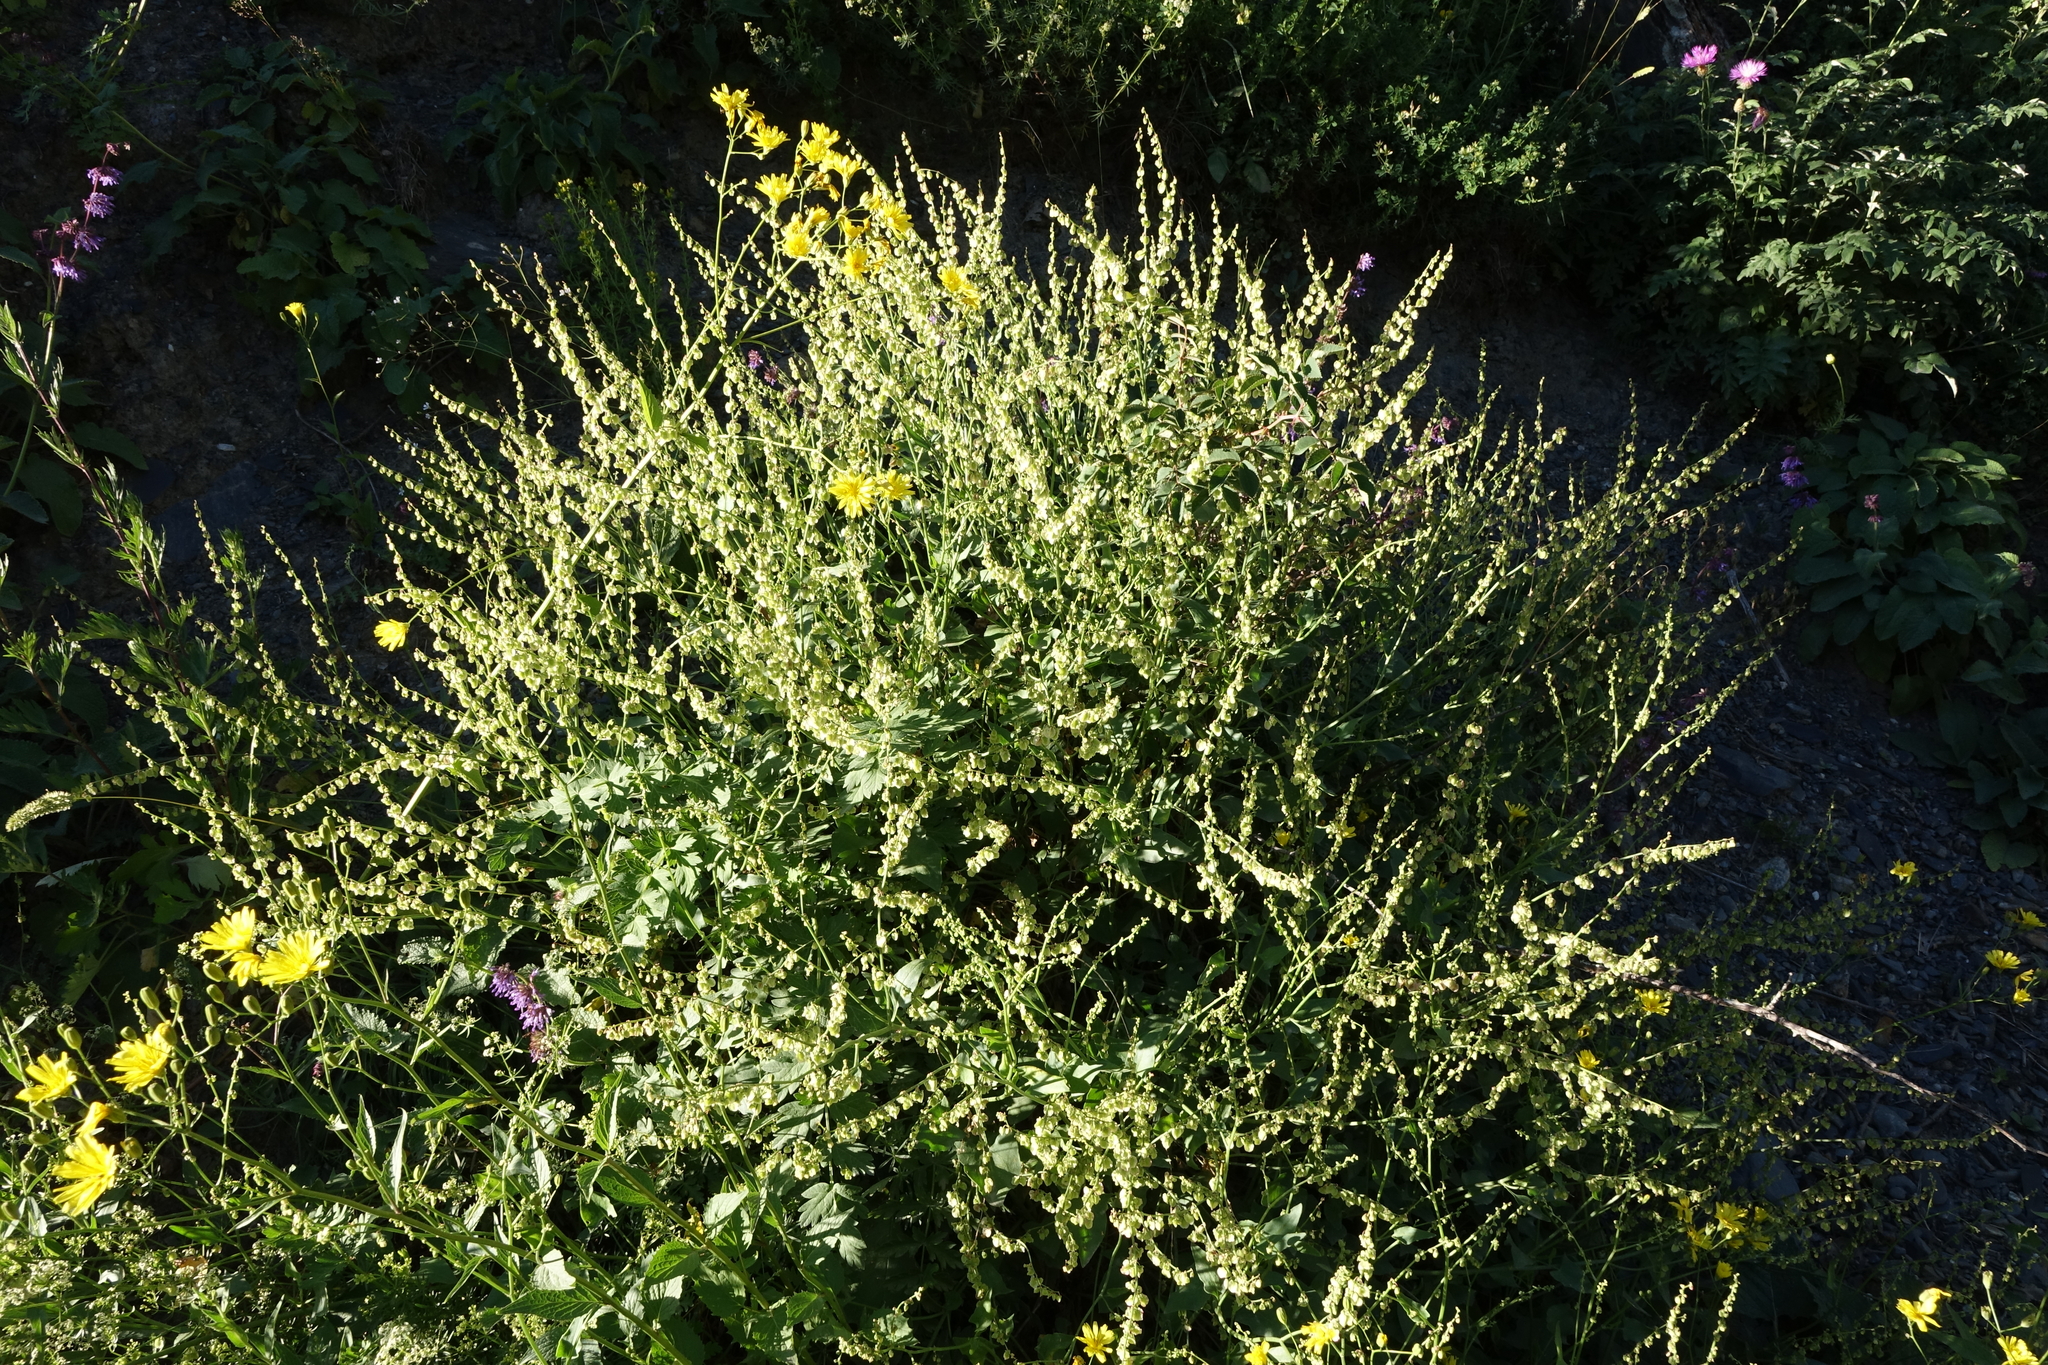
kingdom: Plantae
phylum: Tracheophyta
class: Magnoliopsida
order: Caryophyllales
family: Polygonaceae
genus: Rumex
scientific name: Rumex scutatus
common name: French sorrel
